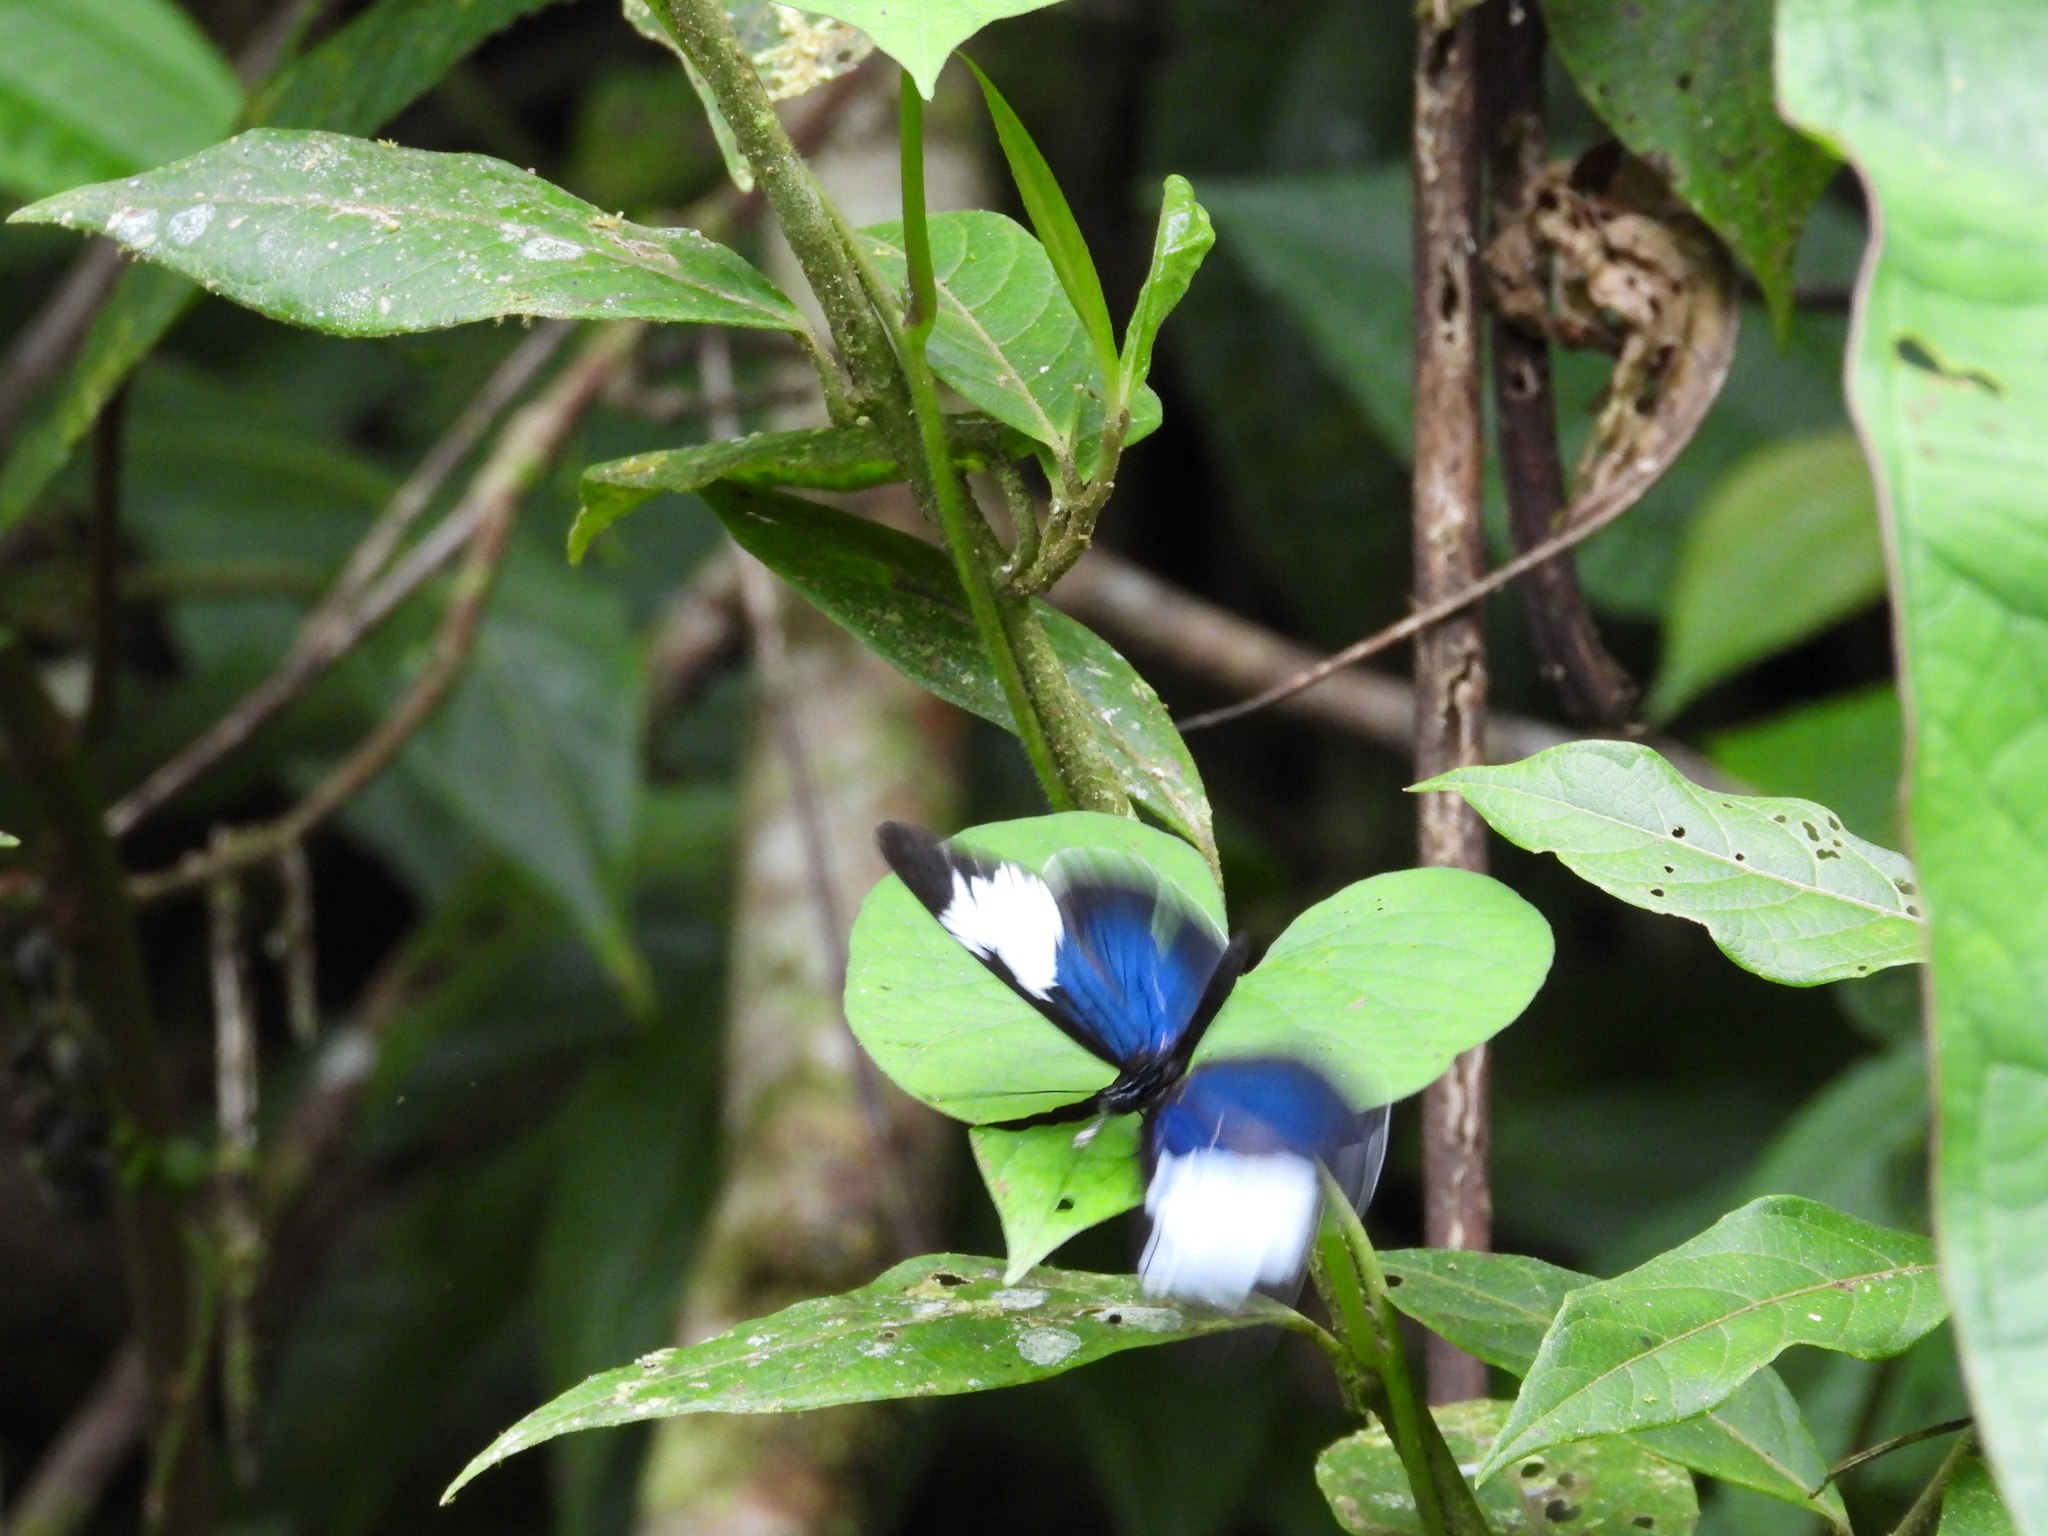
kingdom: Animalia
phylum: Arthropoda
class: Insecta
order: Lepidoptera
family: Nymphalidae
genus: Heliconius
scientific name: Heliconius eleuchia
